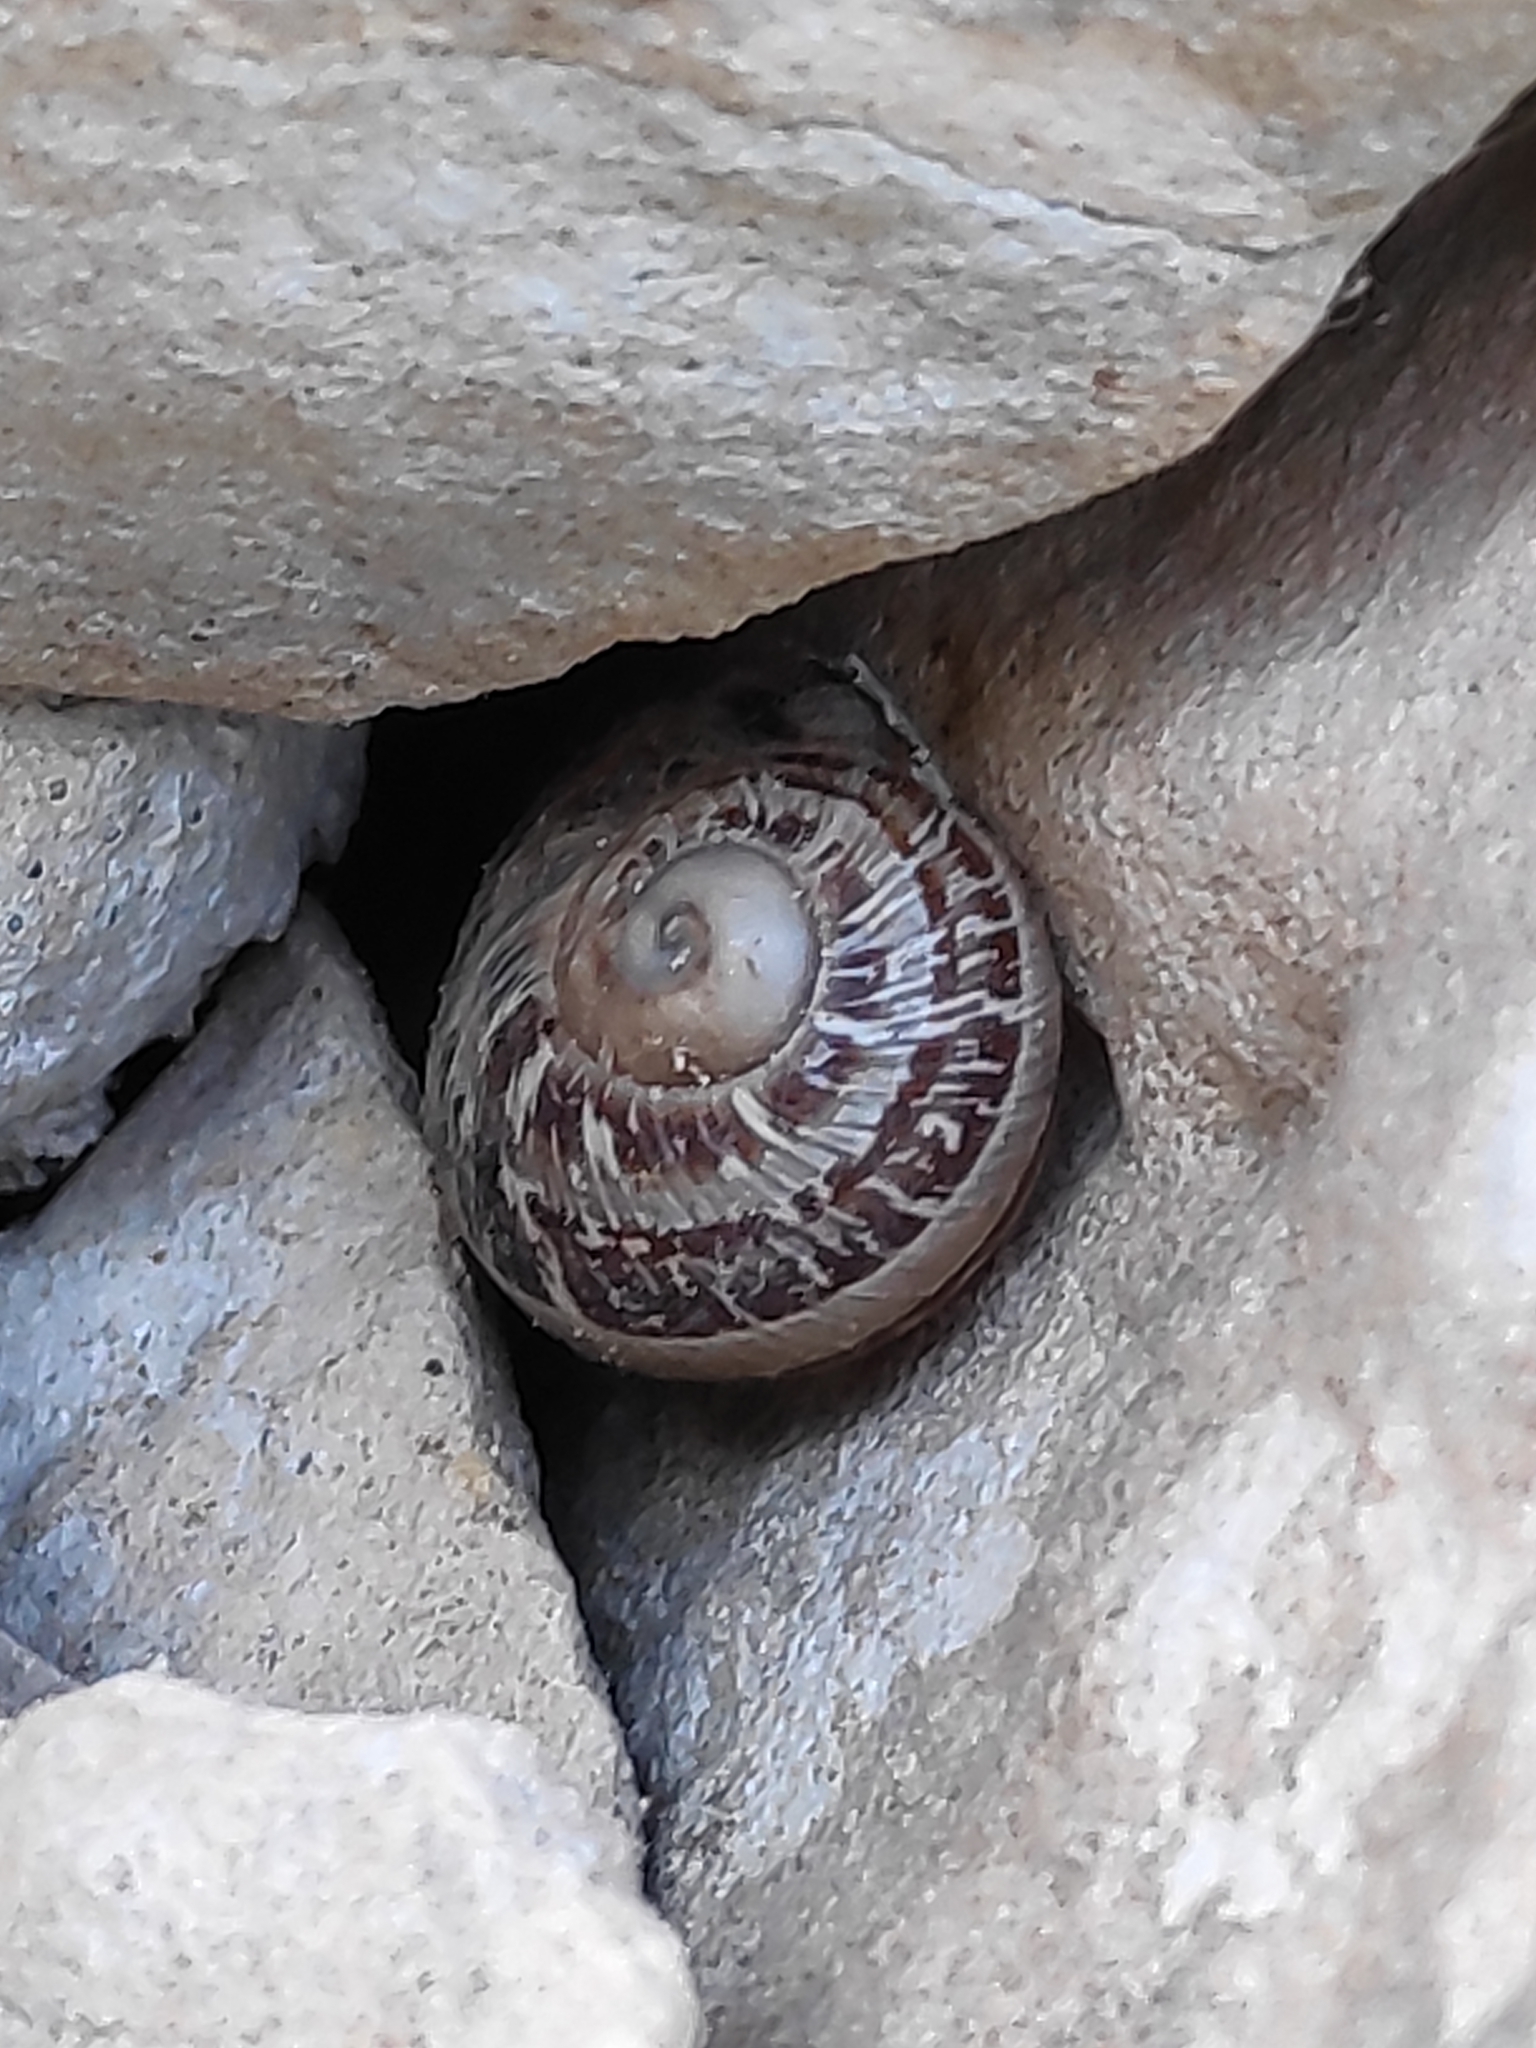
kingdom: Animalia
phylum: Mollusca
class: Gastropoda
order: Stylommatophora
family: Helicidae
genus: Cornu
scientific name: Cornu aspersum
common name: Brown garden snail
